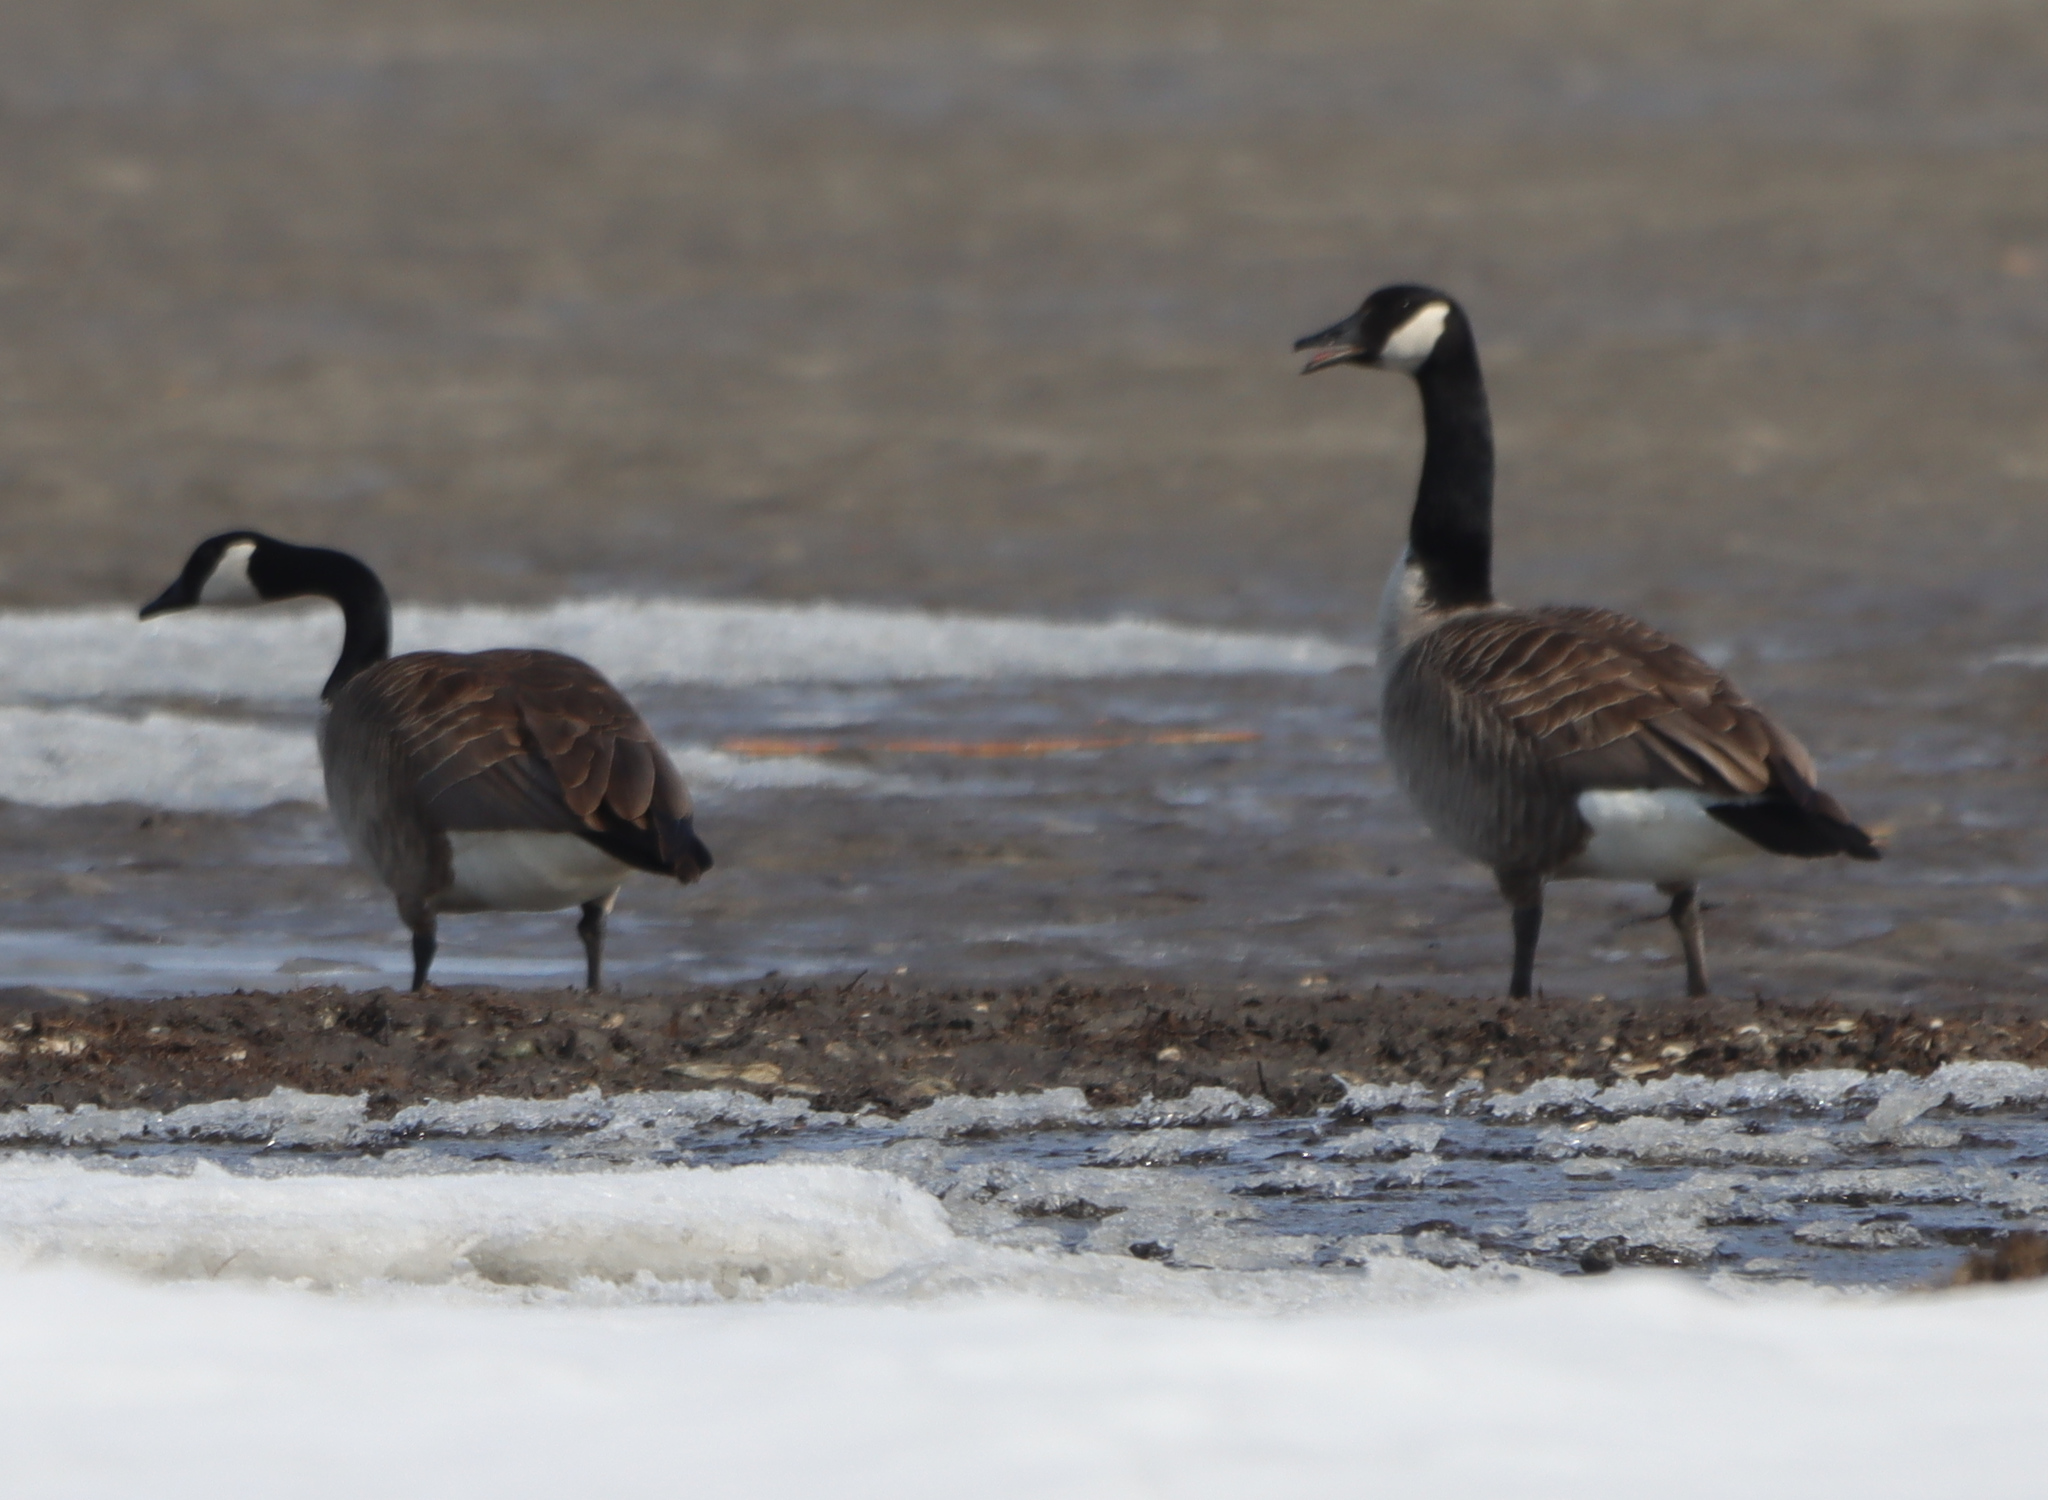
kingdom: Animalia
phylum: Chordata
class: Aves
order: Anseriformes
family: Anatidae
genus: Branta
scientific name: Branta canadensis
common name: Canada goose
